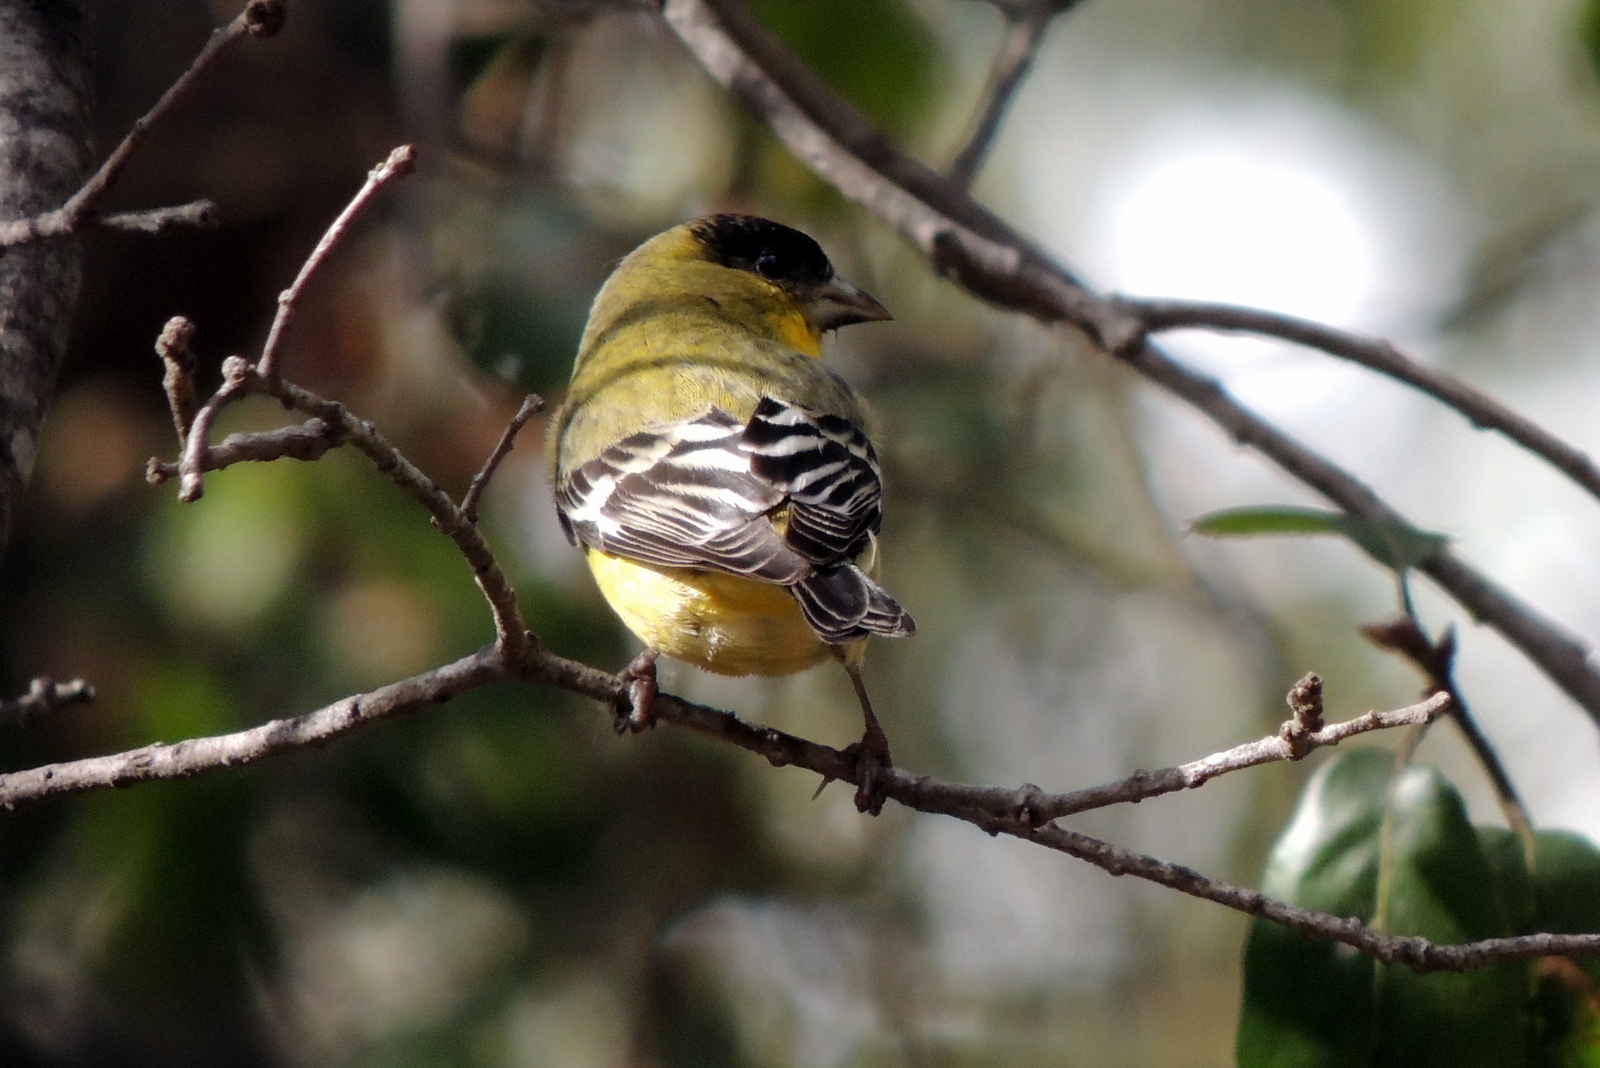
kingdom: Animalia
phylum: Chordata
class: Aves
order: Passeriformes
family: Fringillidae
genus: Spinus
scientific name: Spinus psaltria
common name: Lesser goldfinch
